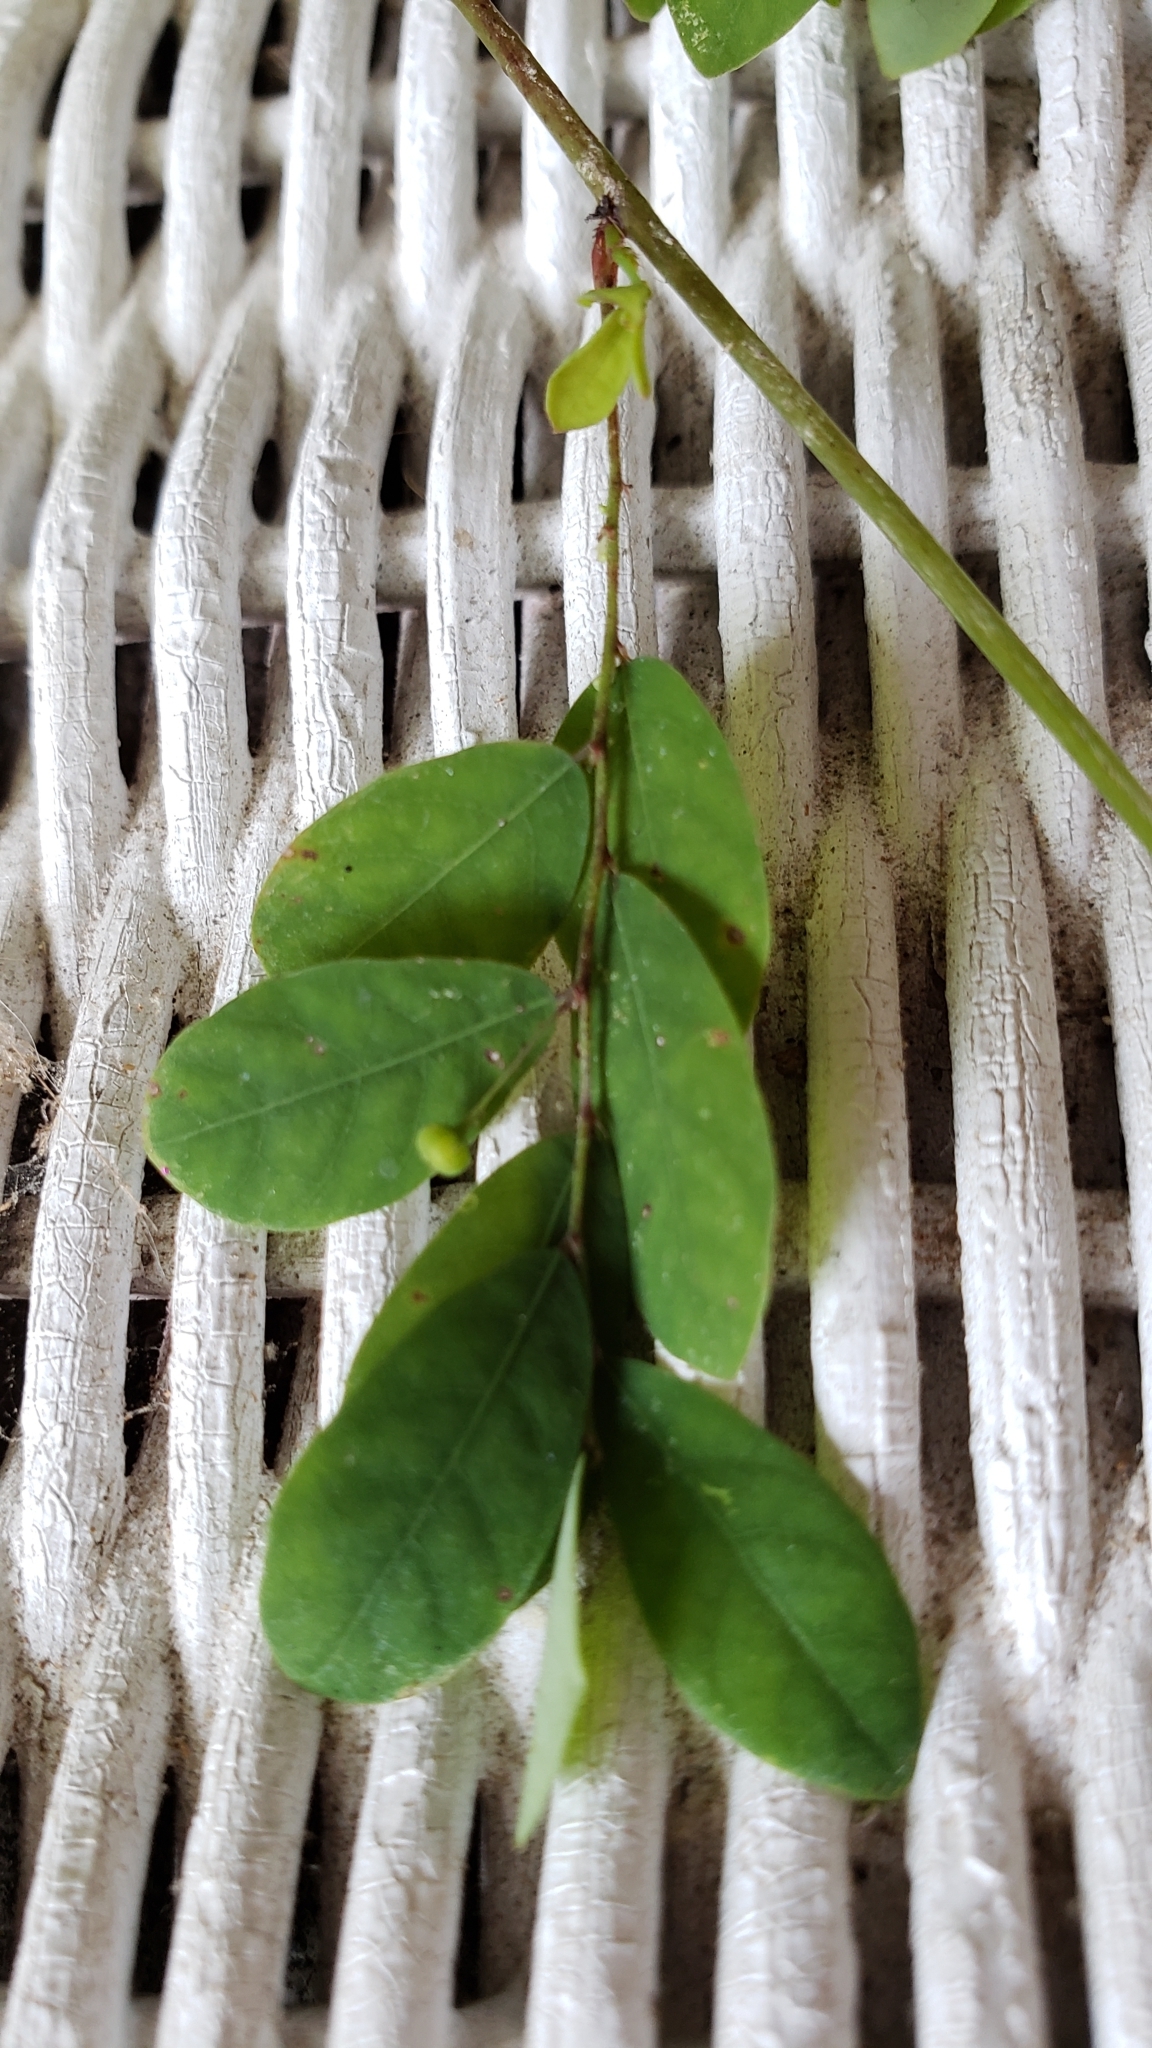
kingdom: Plantae
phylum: Tracheophyta
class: Magnoliopsida
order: Malpighiales
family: Phyllanthaceae
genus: Phyllanthus
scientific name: Phyllanthus tenellus
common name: Mascarene island leaf-flower
